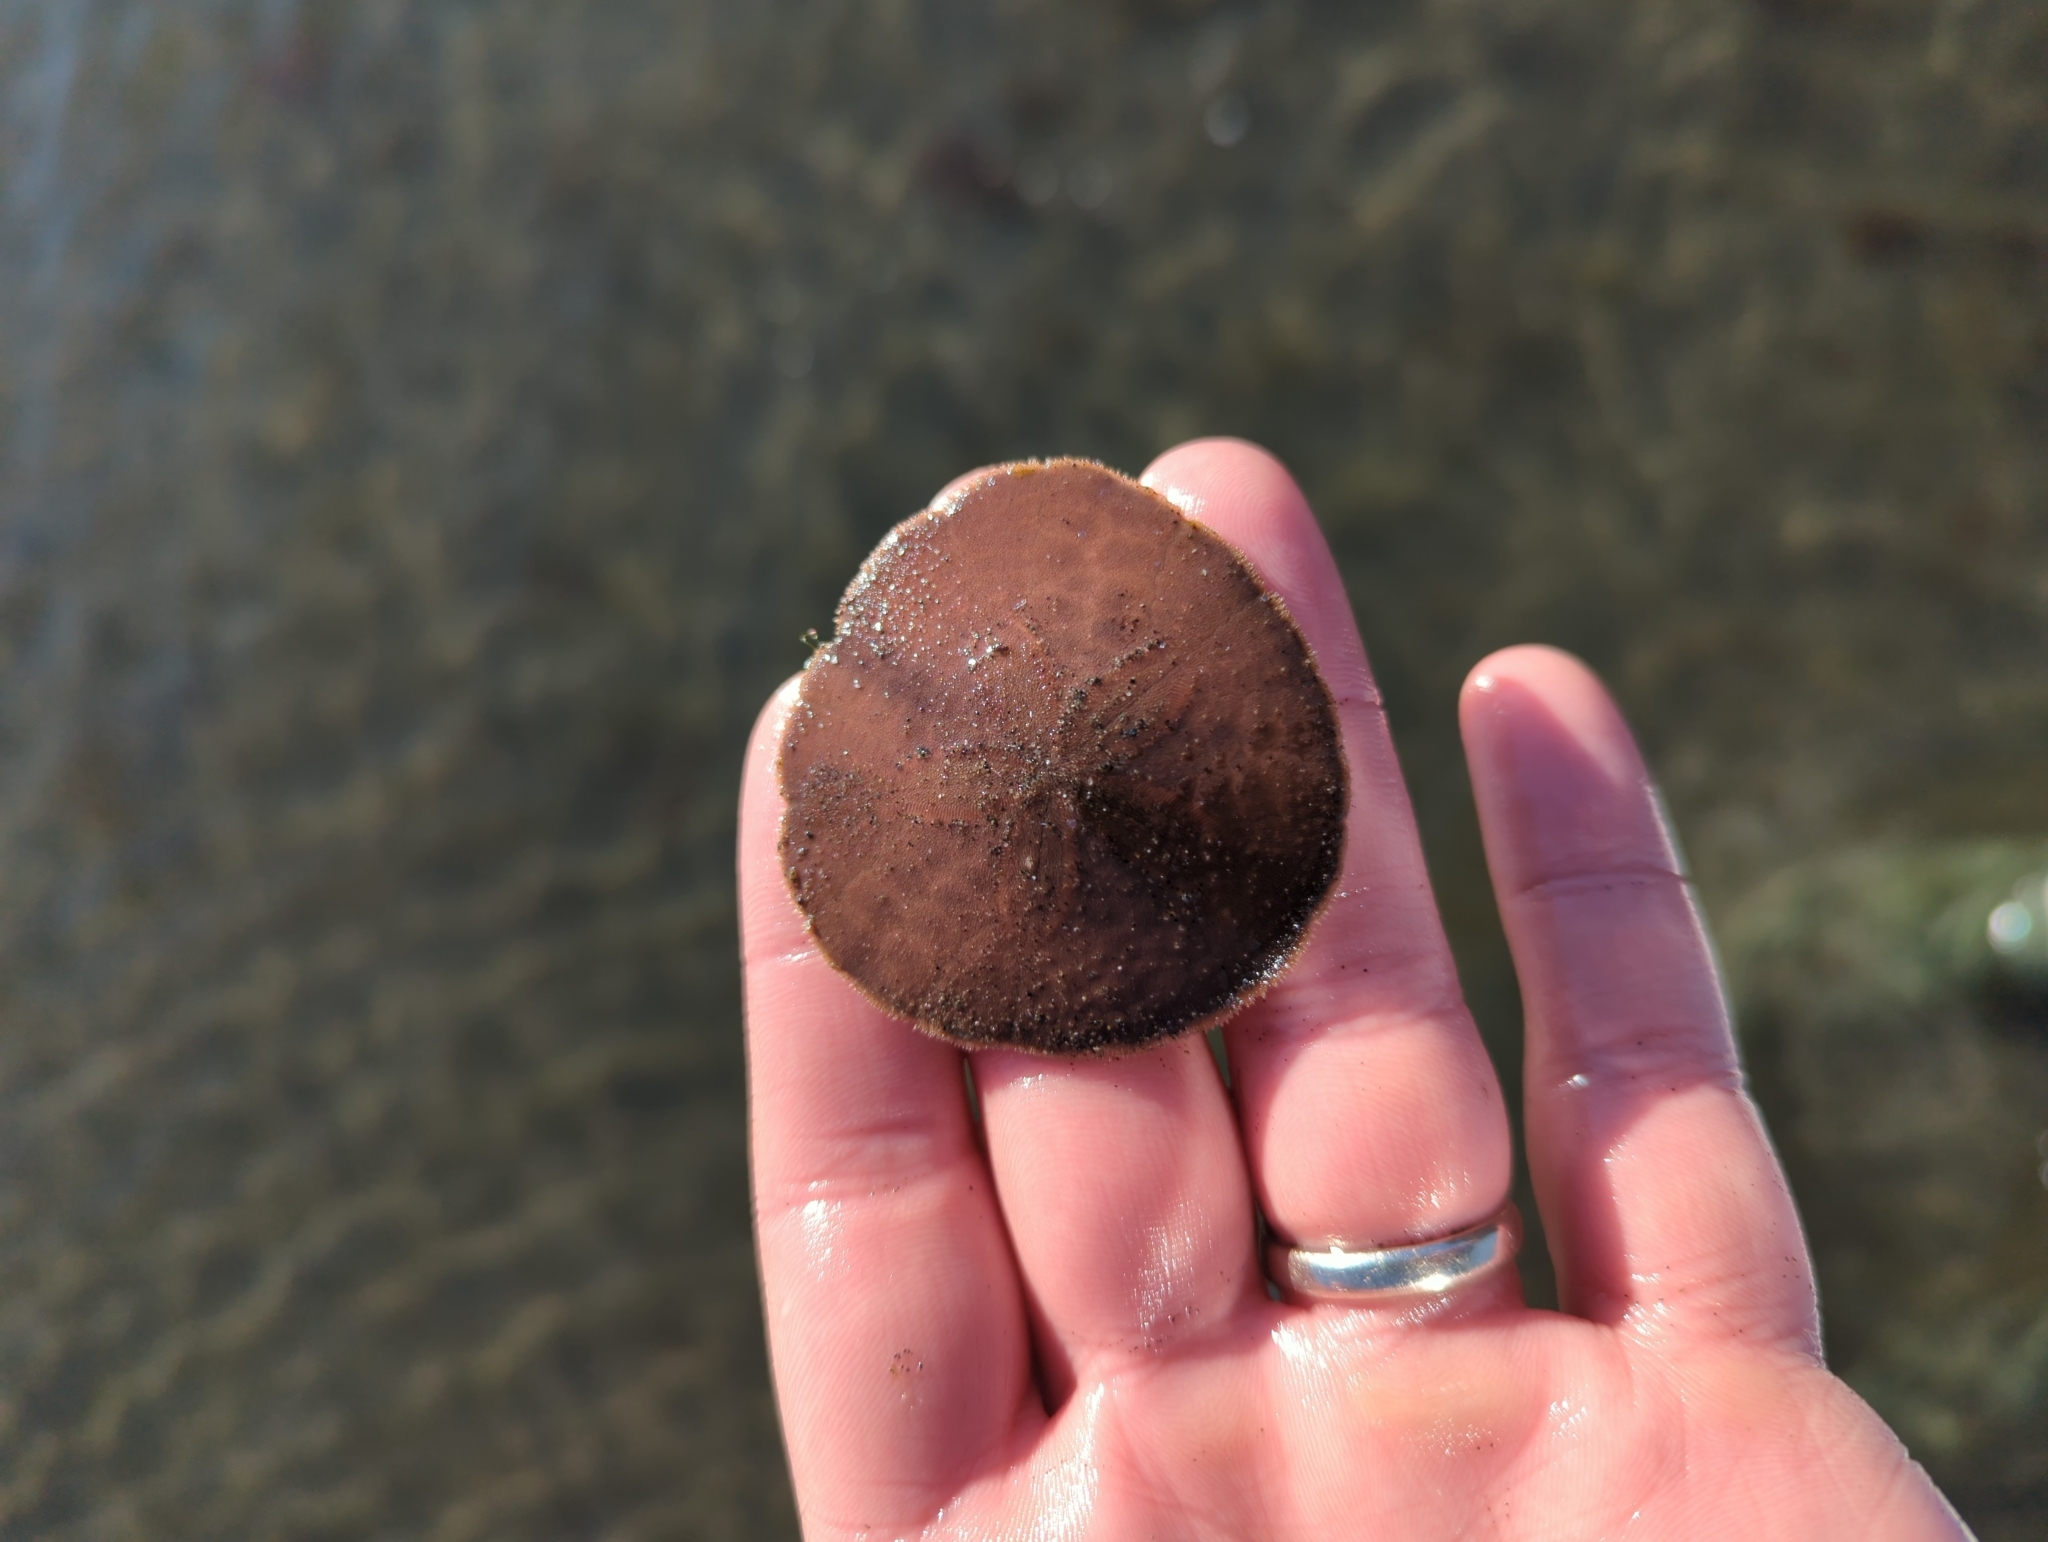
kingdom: Animalia
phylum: Echinodermata
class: Echinoidea
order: Echinolampadacea
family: Echinarachniidae
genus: Echinarachnius
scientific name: Echinarachnius parma
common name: Common sand dollar
